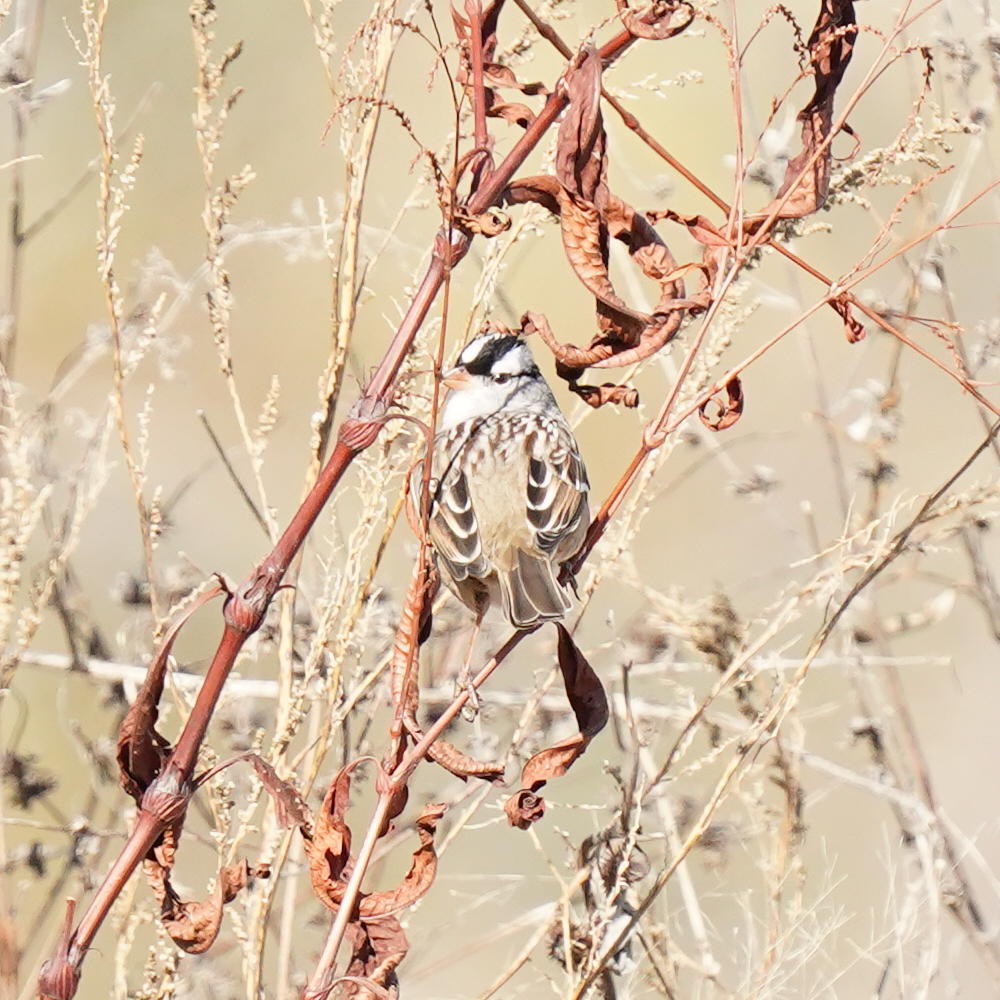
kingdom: Animalia
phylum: Chordata
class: Aves
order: Passeriformes
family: Passerellidae
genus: Zonotrichia
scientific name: Zonotrichia leucophrys
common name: White-crowned sparrow
